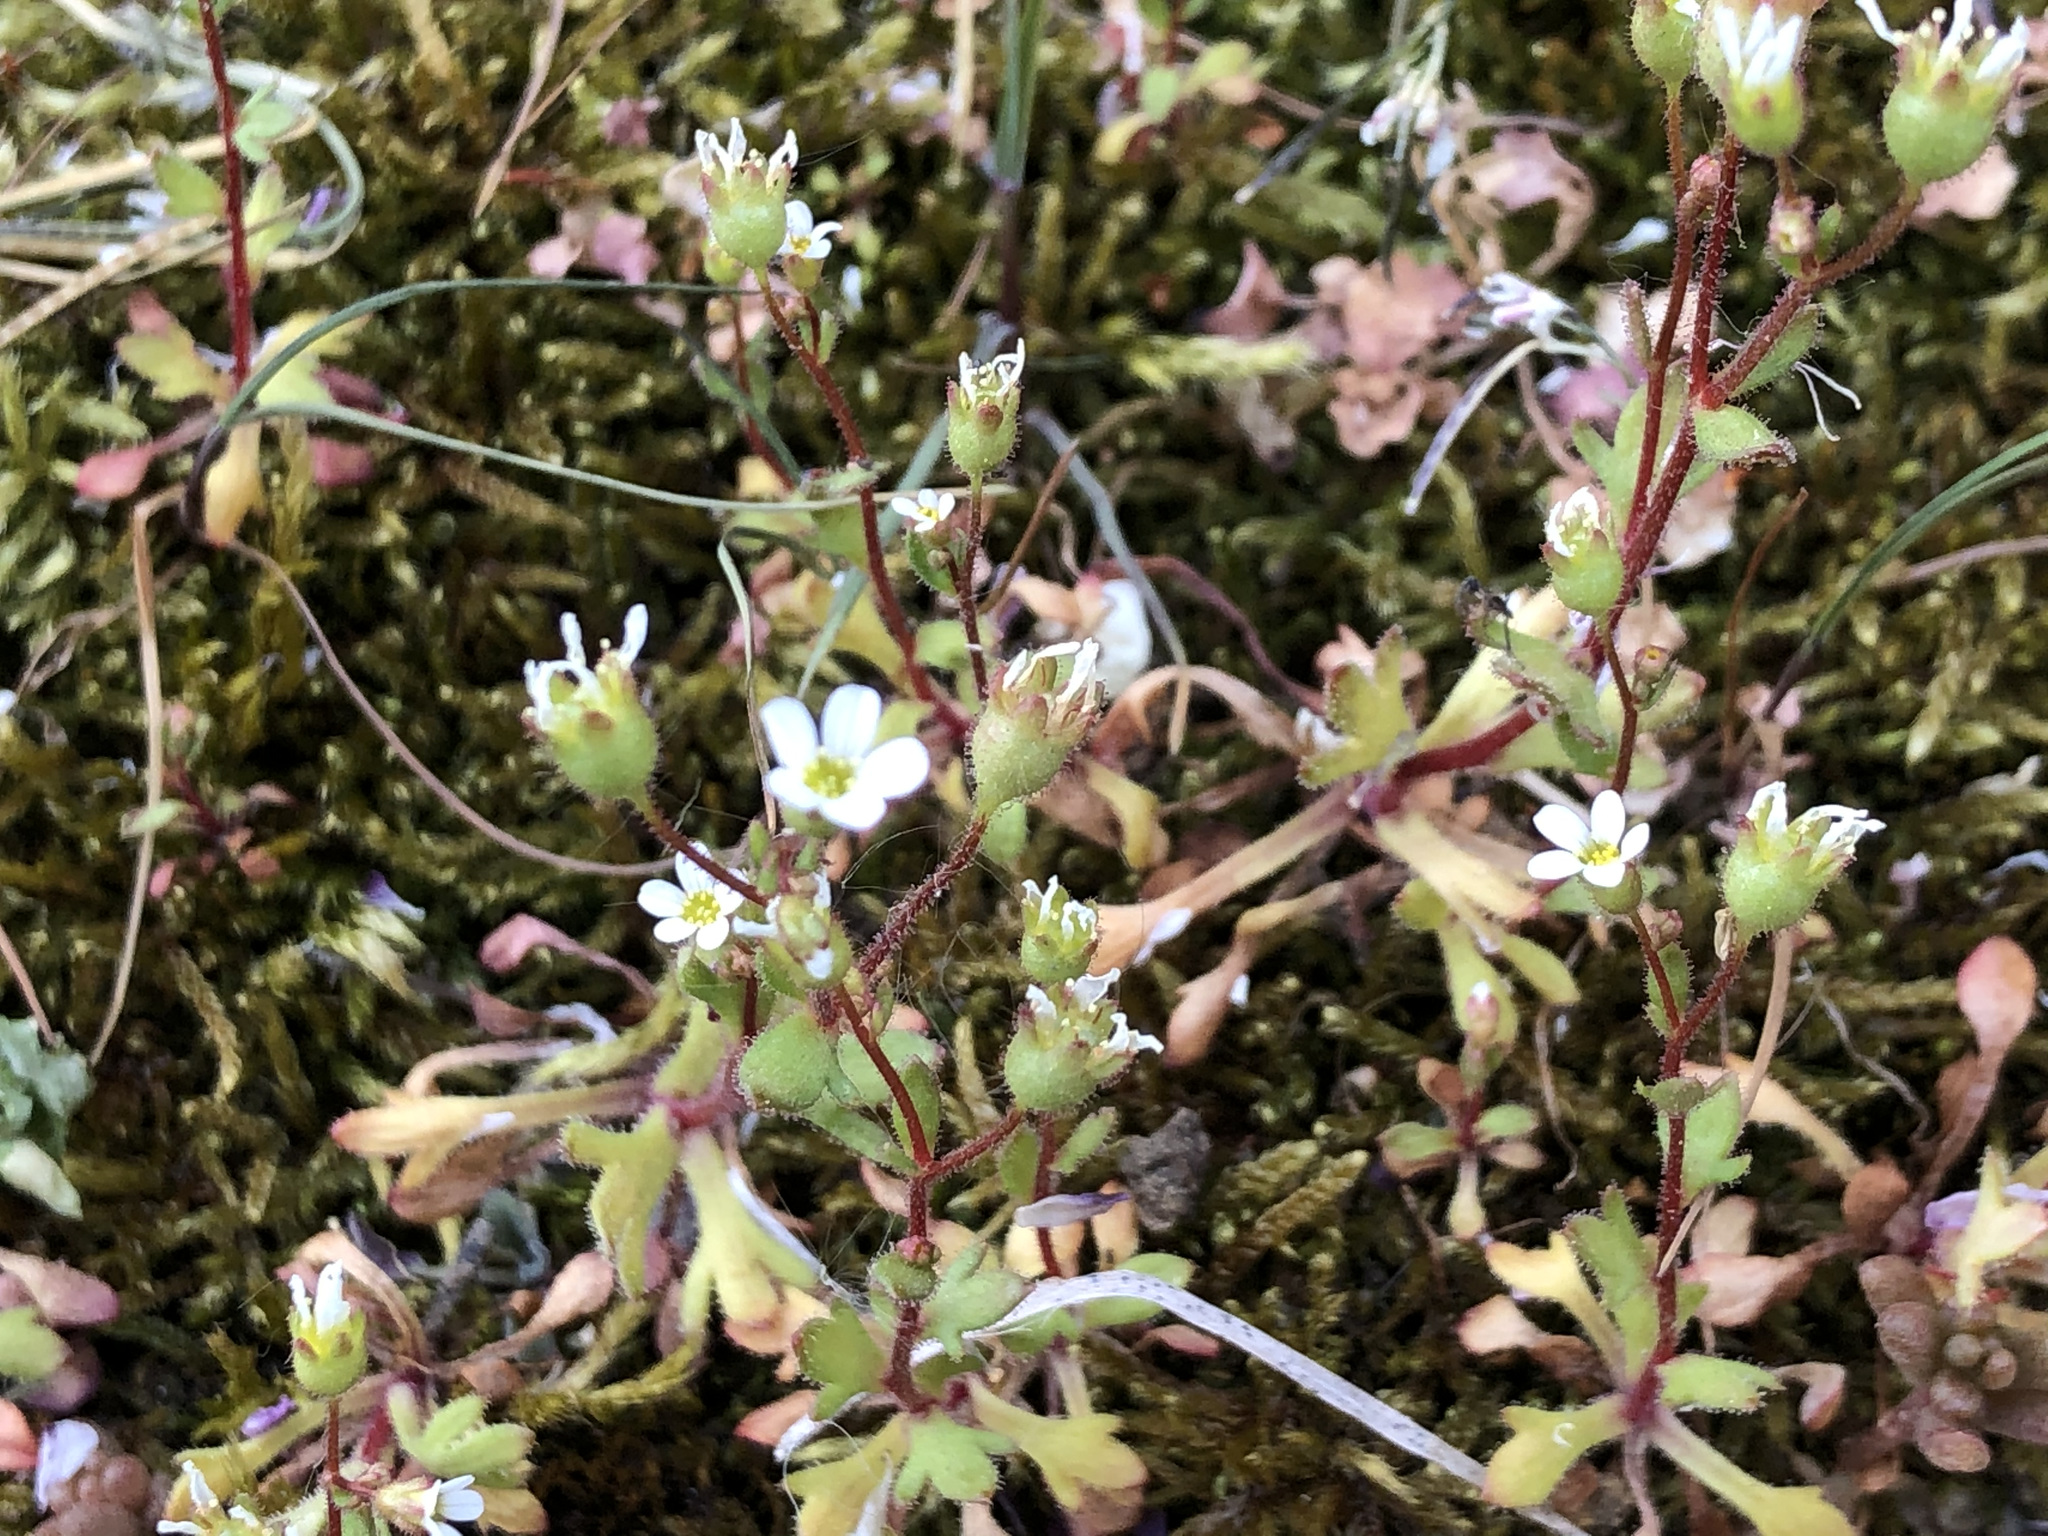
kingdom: Plantae
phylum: Tracheophyta
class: Magnoliopsida
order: Saxifragales
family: Saxifragaceae
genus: Saxifraga
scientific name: Saxifraga tridactylites
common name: Rue-leaved saxifrage
